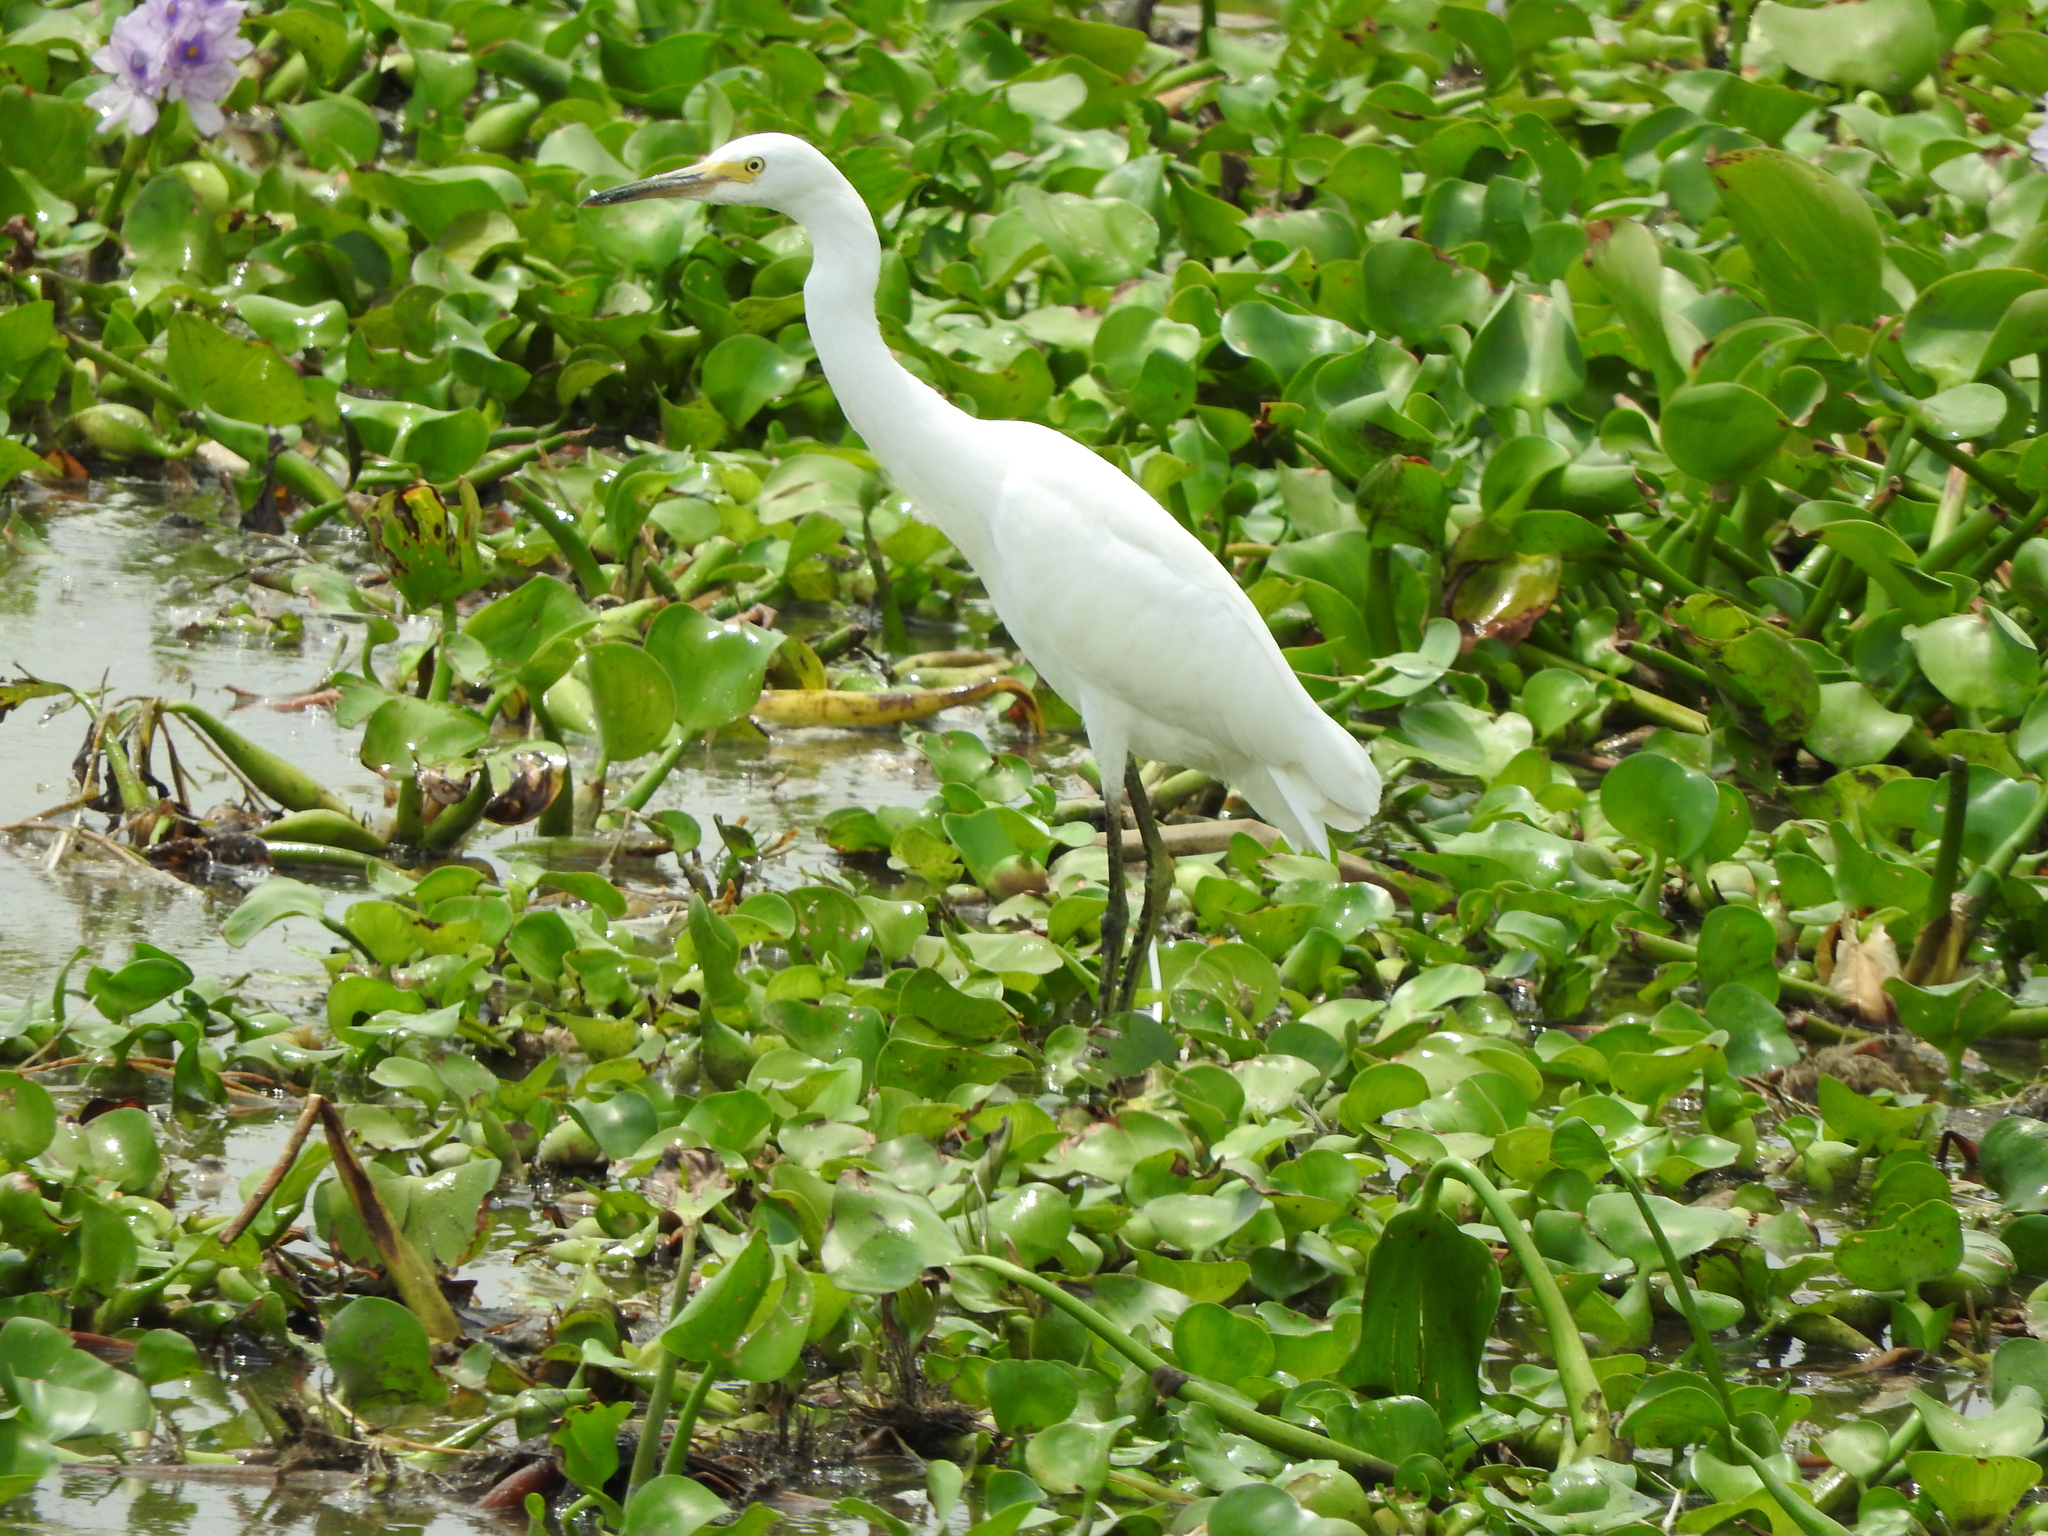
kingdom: Animalia
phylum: Chordata
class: Aves
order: Pelecaniformes
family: Ardeidae
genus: Egretta
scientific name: Egretta thula
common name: Snowy egret
